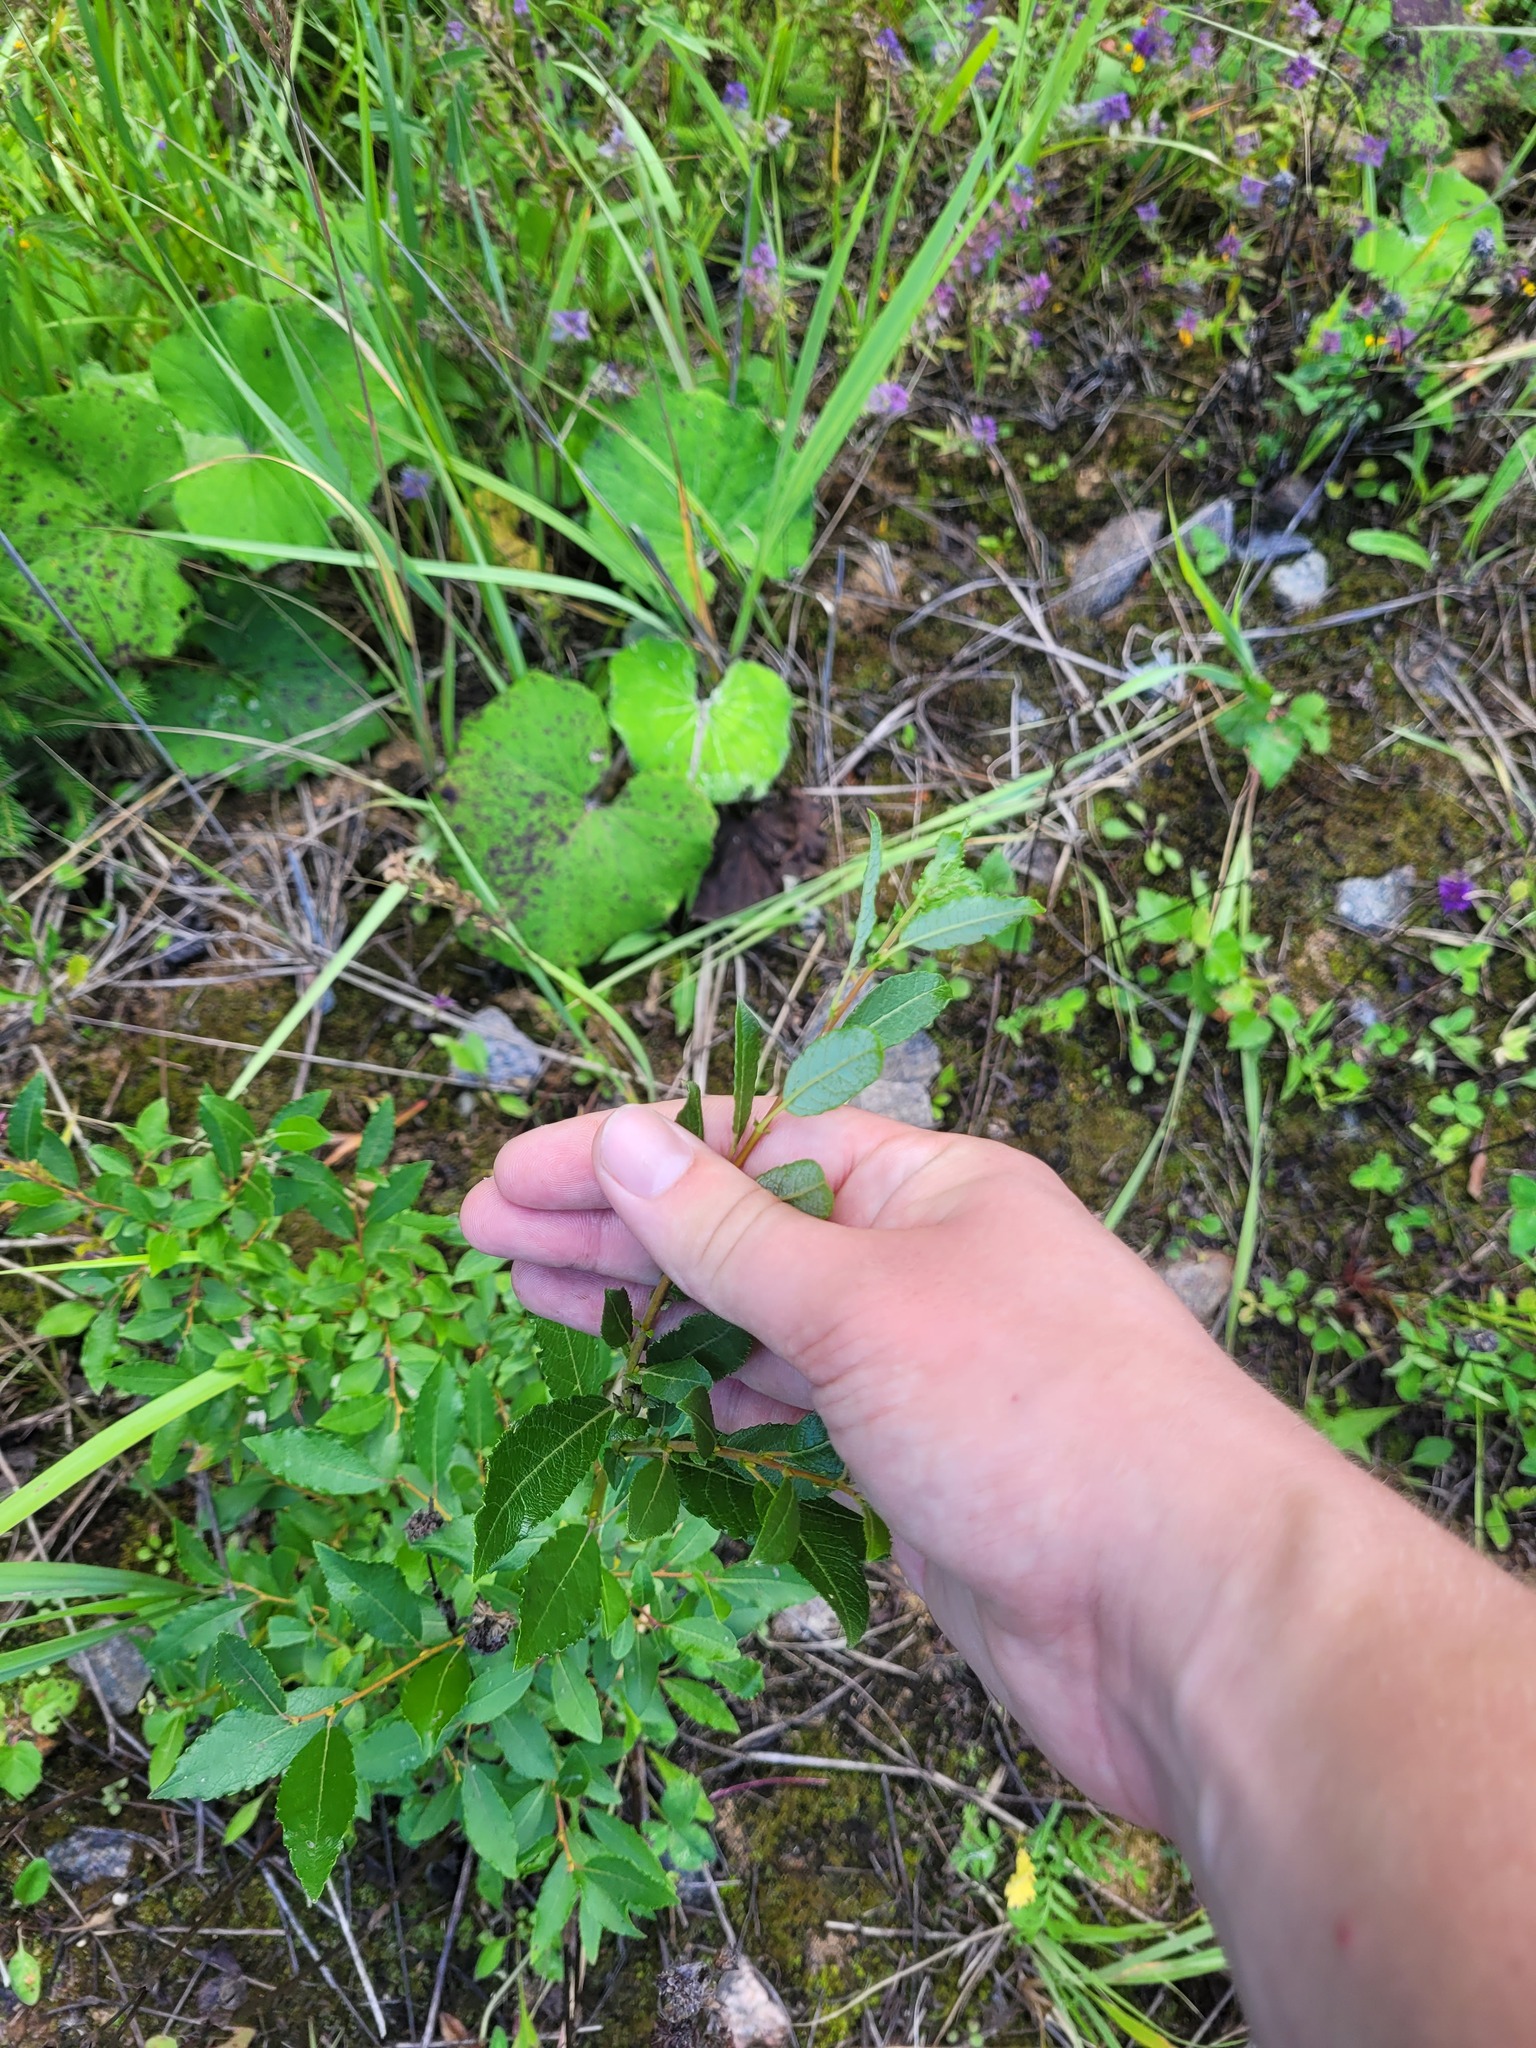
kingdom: Plantae
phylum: Tracheophyta
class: Magnoliopsida
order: Malpighiales
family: Salicaceae
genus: Salix
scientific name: Salix myrsinifolia
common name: Dark-leaved willow
